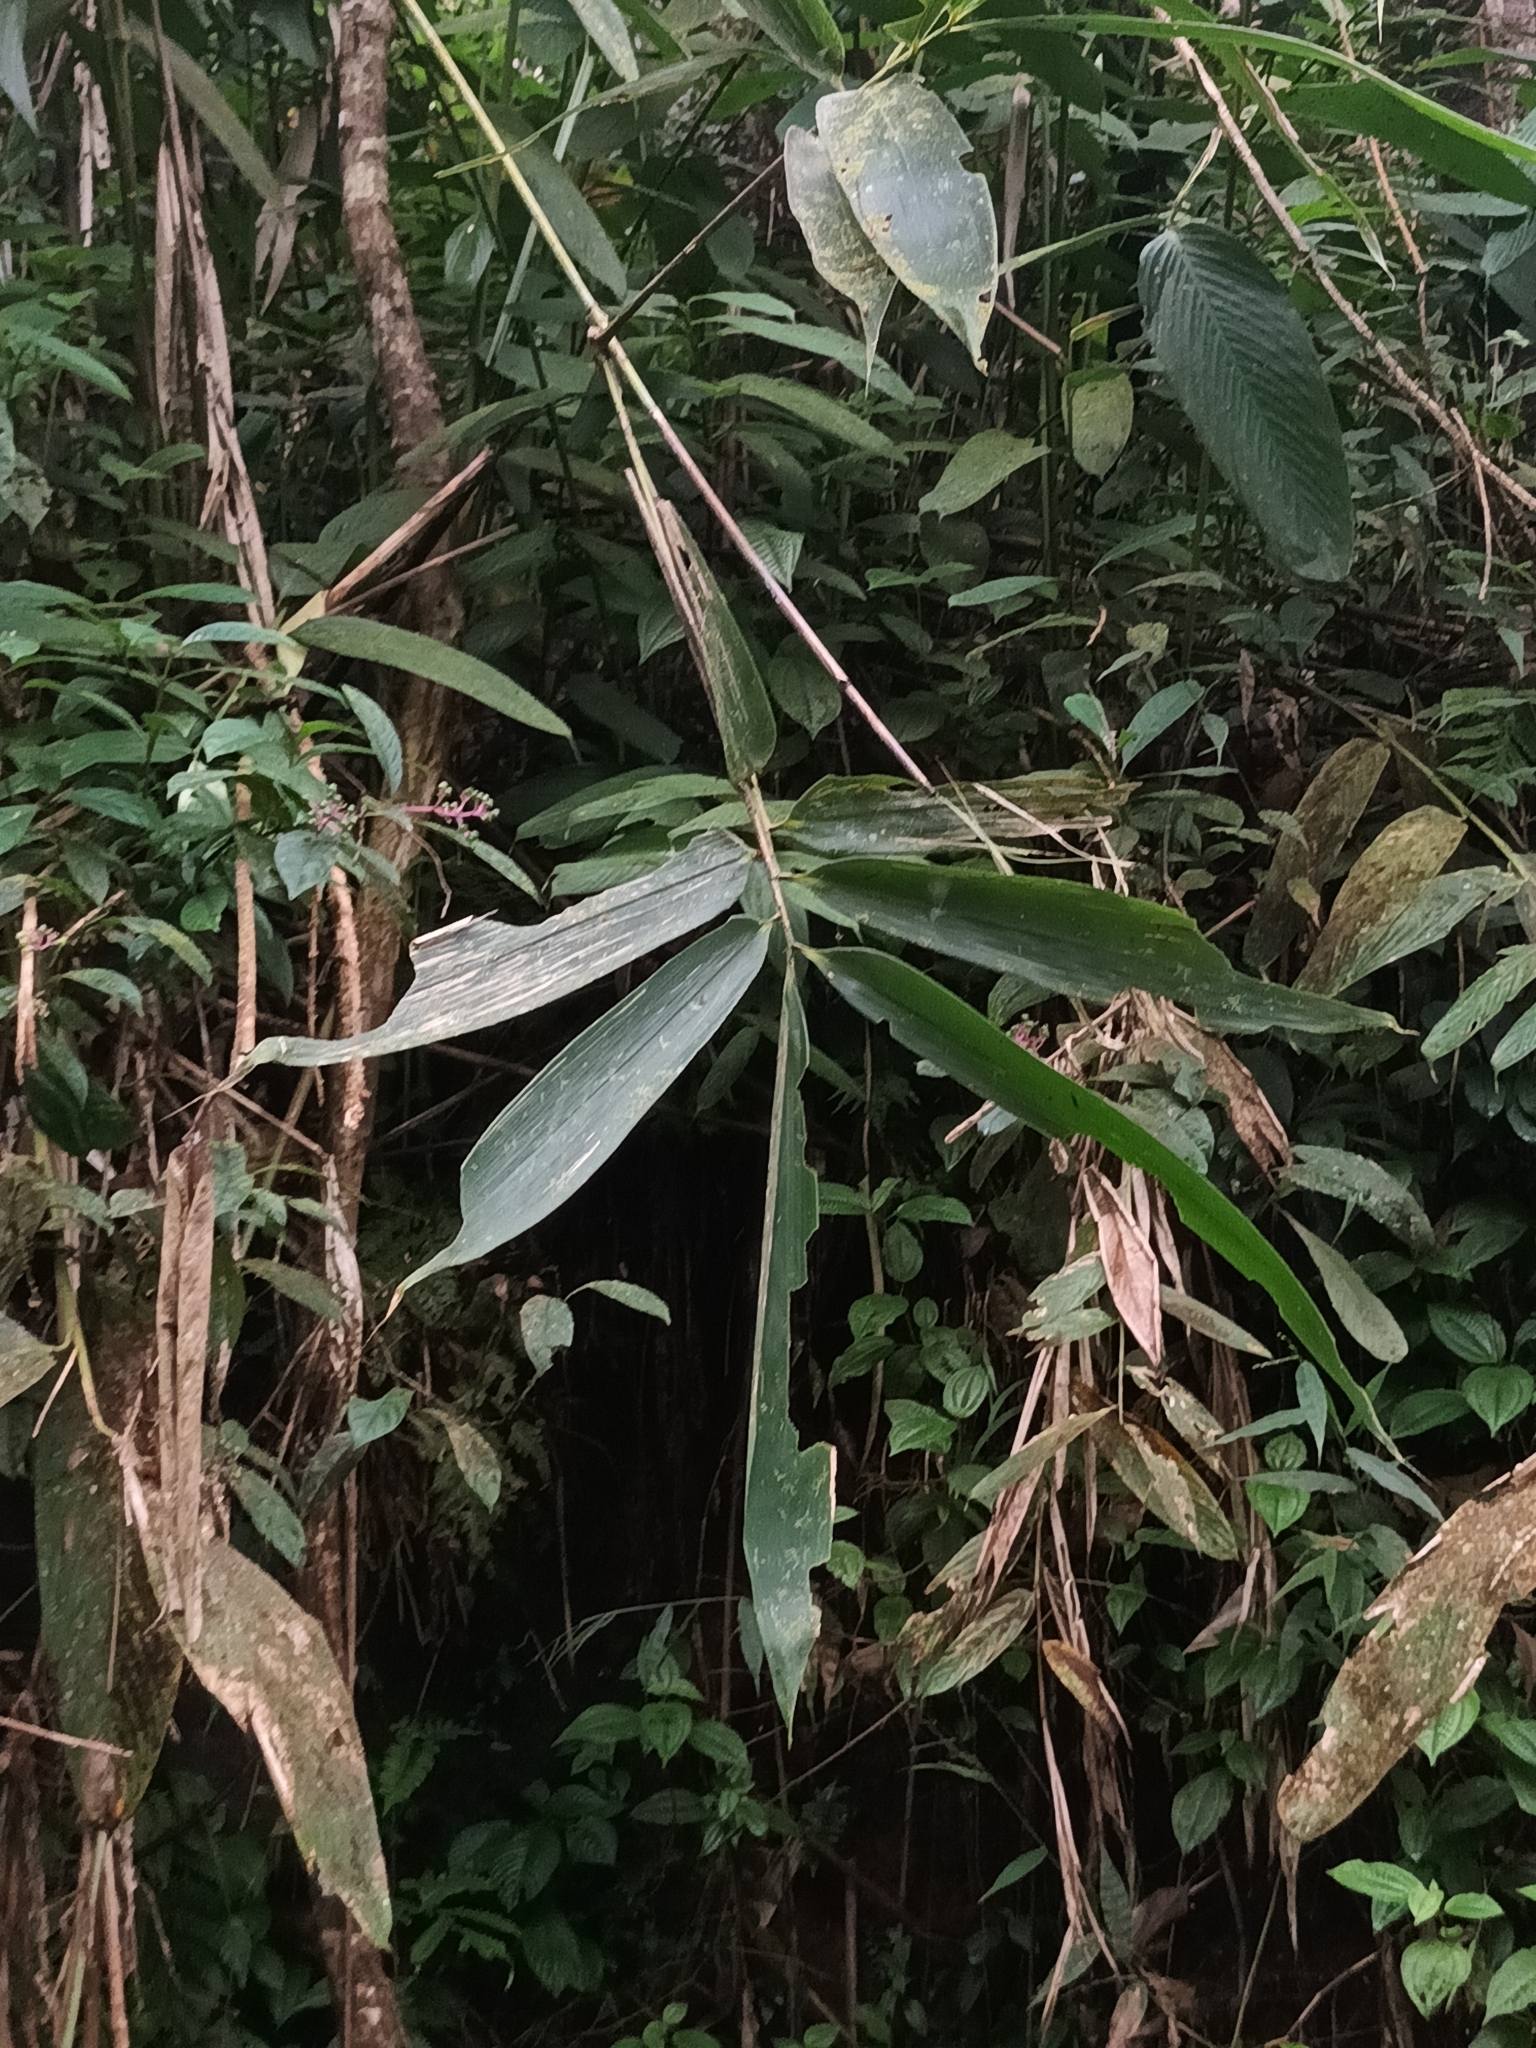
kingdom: Plantae
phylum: Tracheophyta
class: Liliopsida
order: Zingiberales
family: Marantaceae
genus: Indianthus
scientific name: Indianthus virgatus
